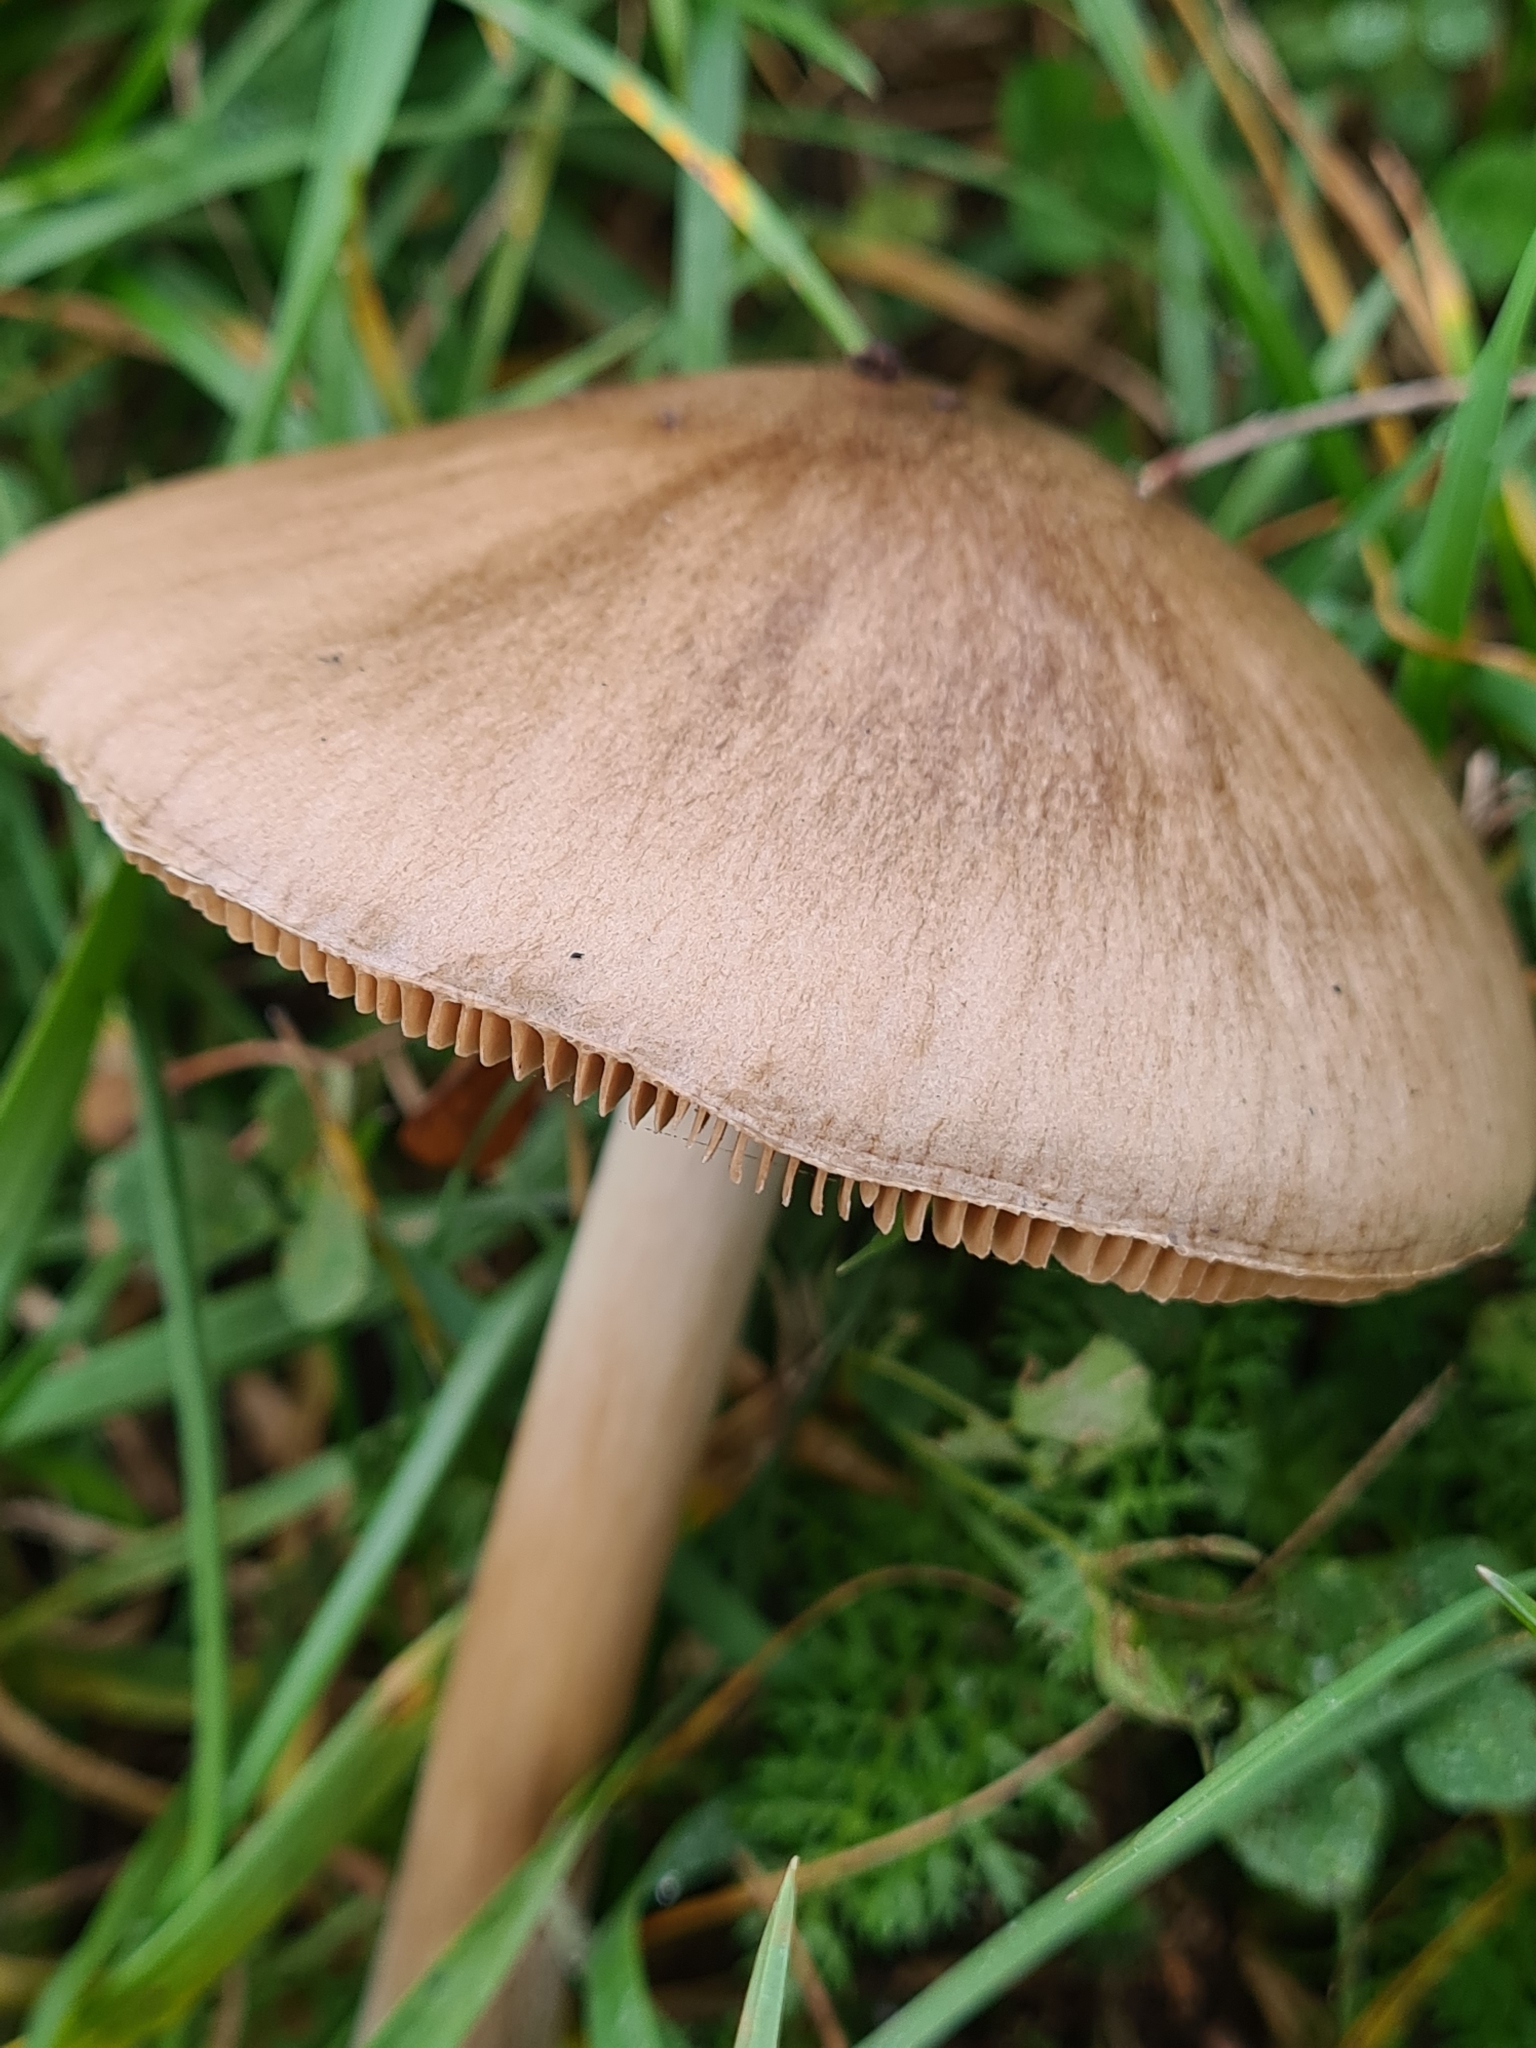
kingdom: Fungi
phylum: Basidiomycota
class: Agaricomycetes
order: Agaricales
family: Pluteaceae
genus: Volvopluteus
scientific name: Volvopluteus gloiocephalus
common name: Stubble rosegill
